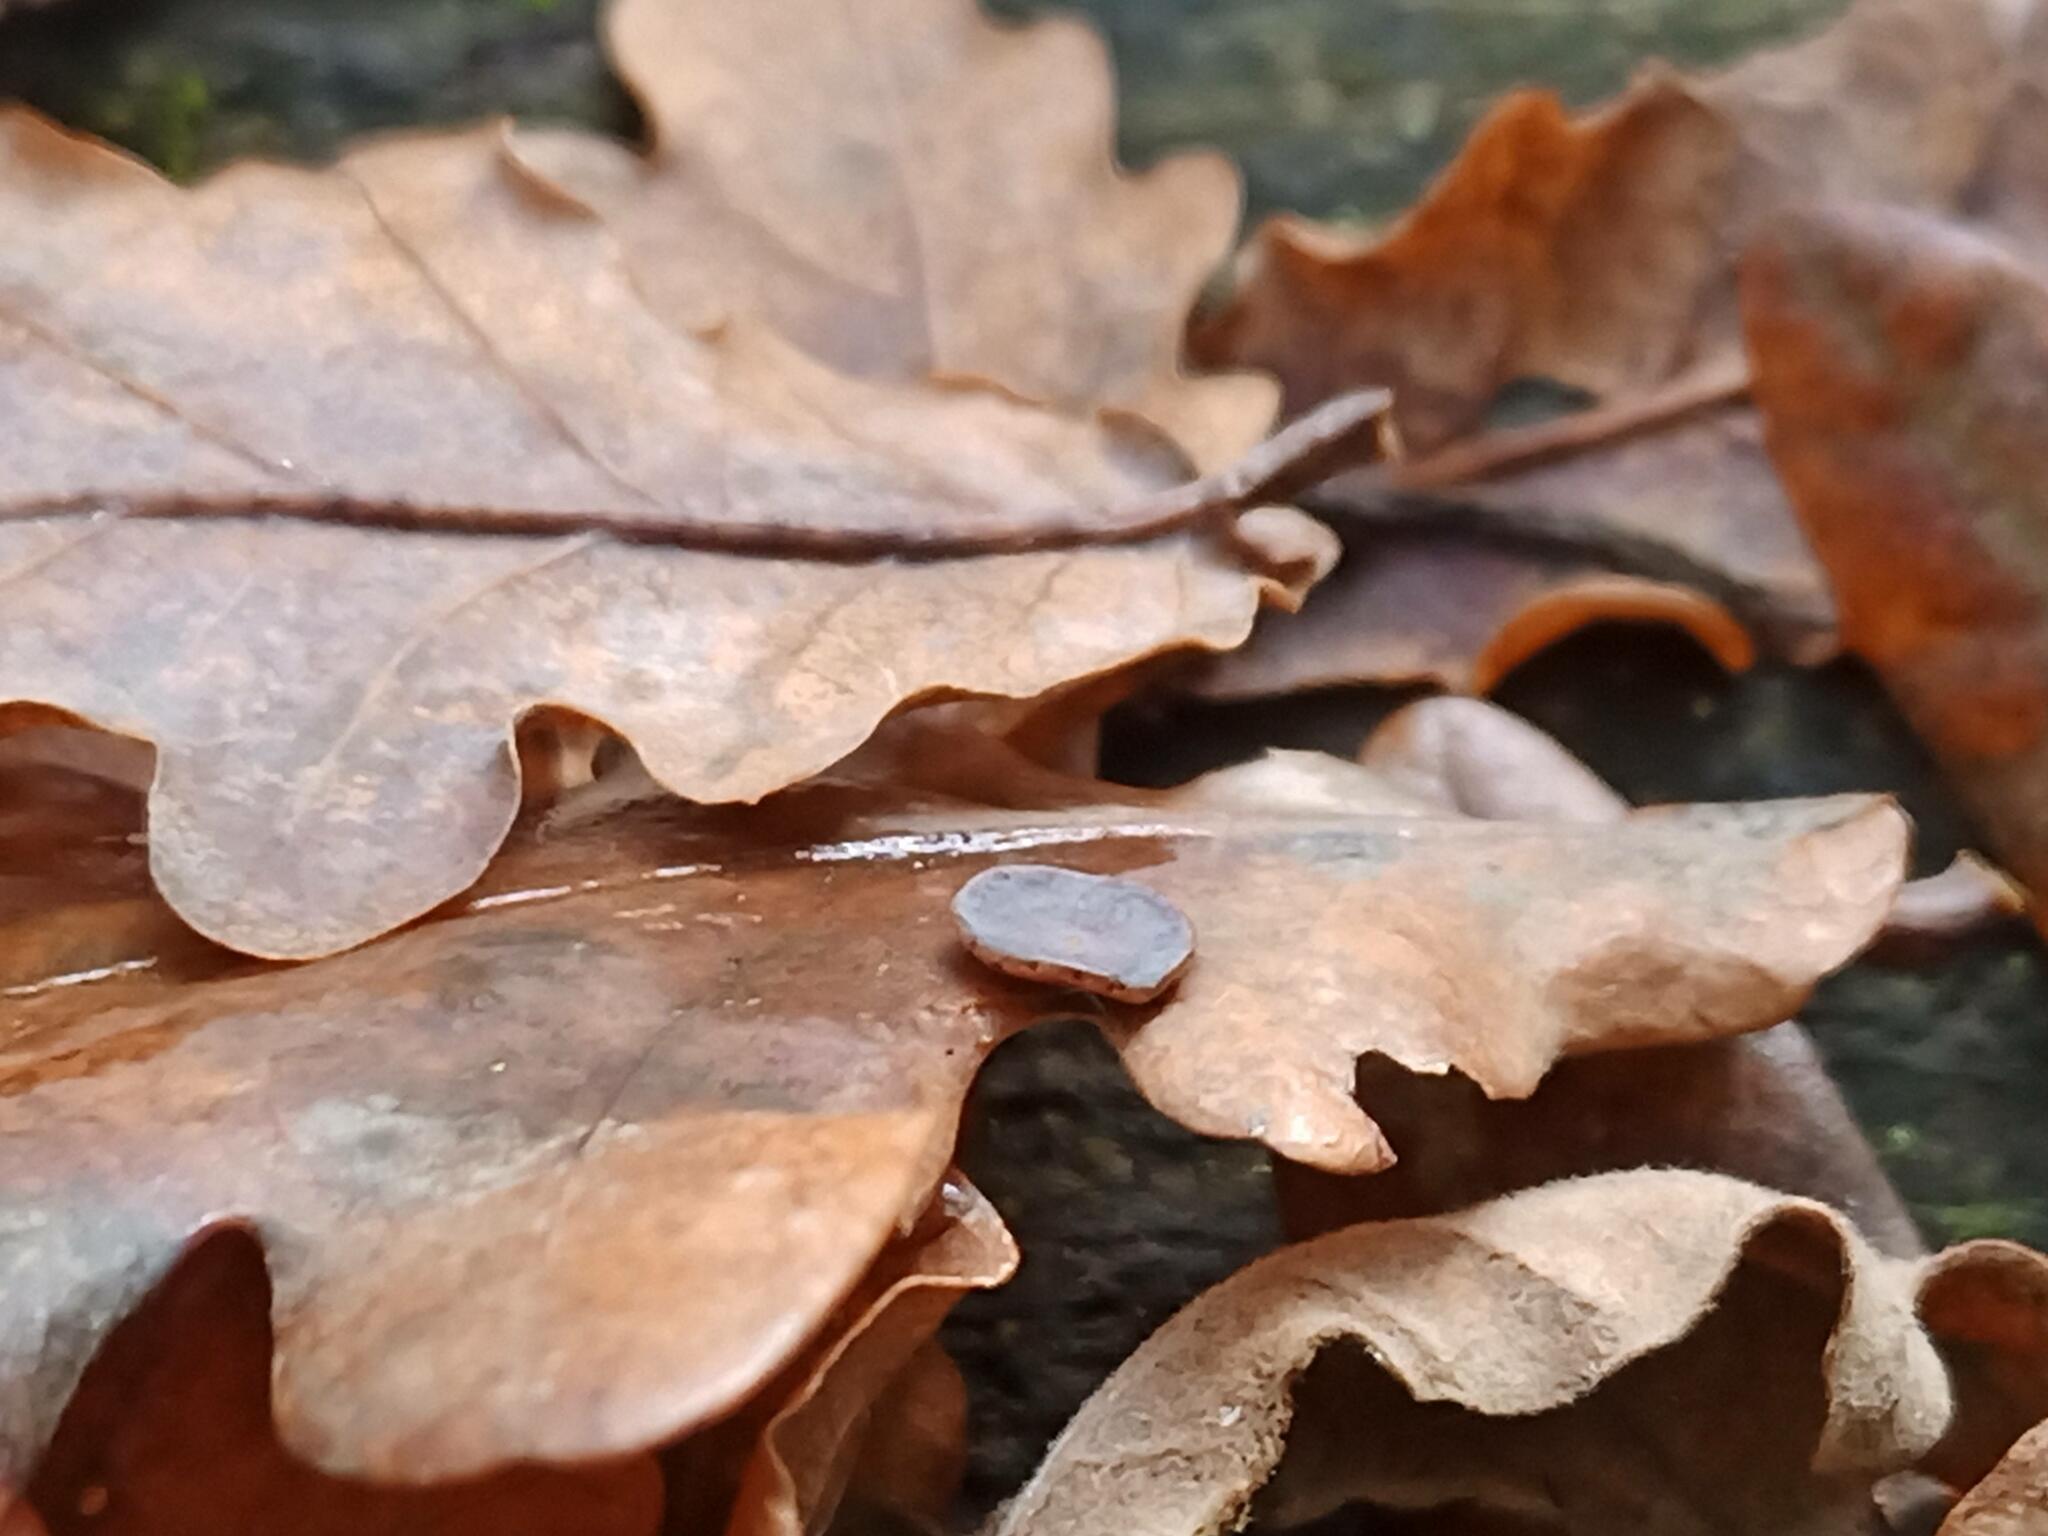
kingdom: Animalia
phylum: Arthropoda
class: Insecta
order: Hymenoptera
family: Cynipidae
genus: Neuroterus
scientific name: Neuroterus albipes
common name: Smooth spangle gall
